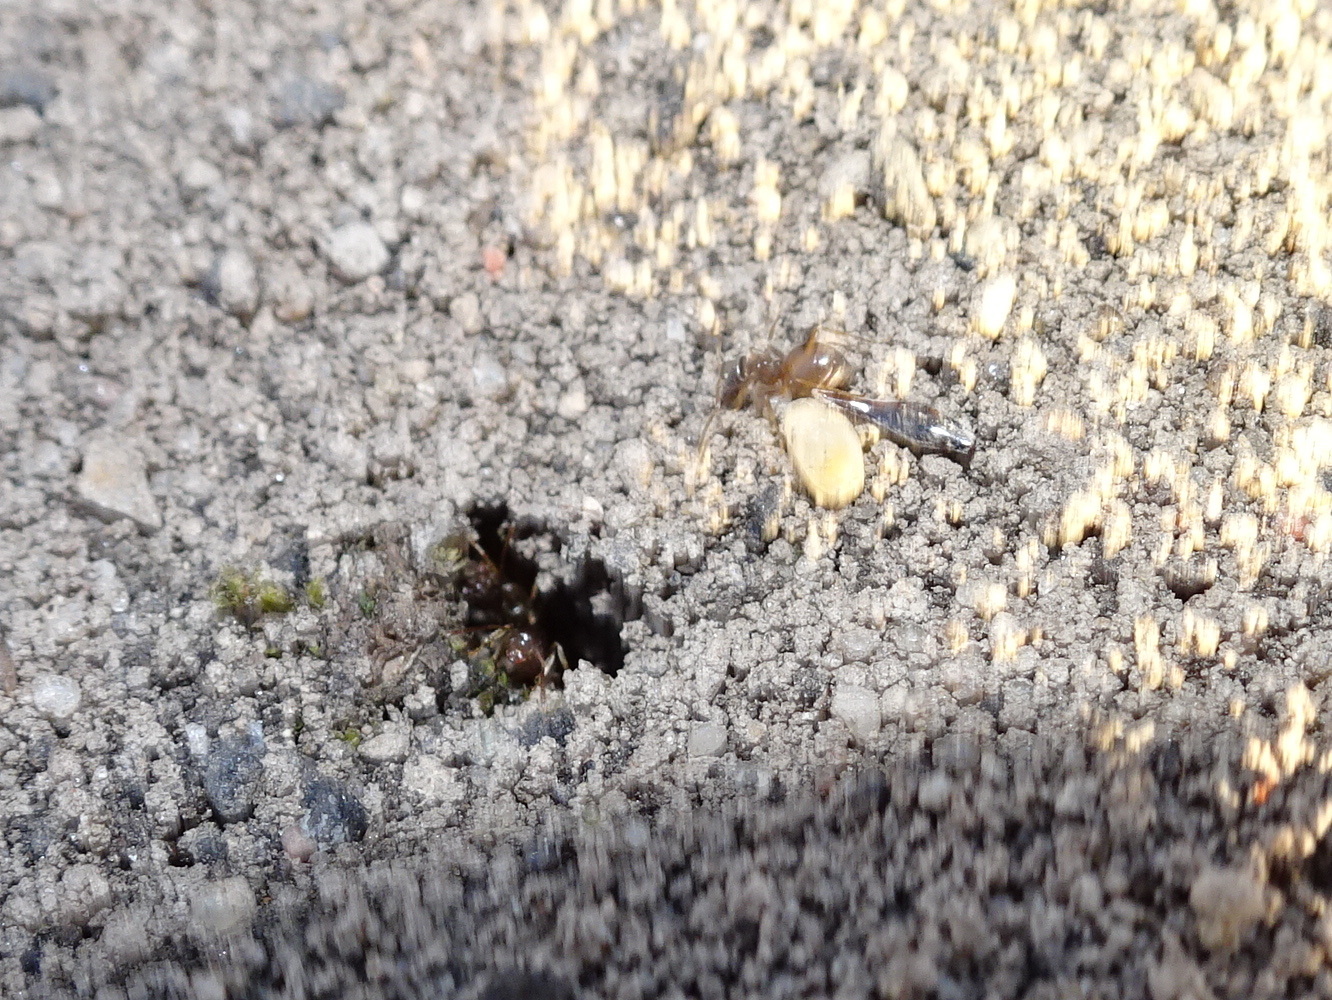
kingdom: Animalia
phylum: Arthropoda
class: Insecta
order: Hymenoptera
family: Formicidae
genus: Prenolepis
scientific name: Prenolepis imparis
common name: Small honey ant
